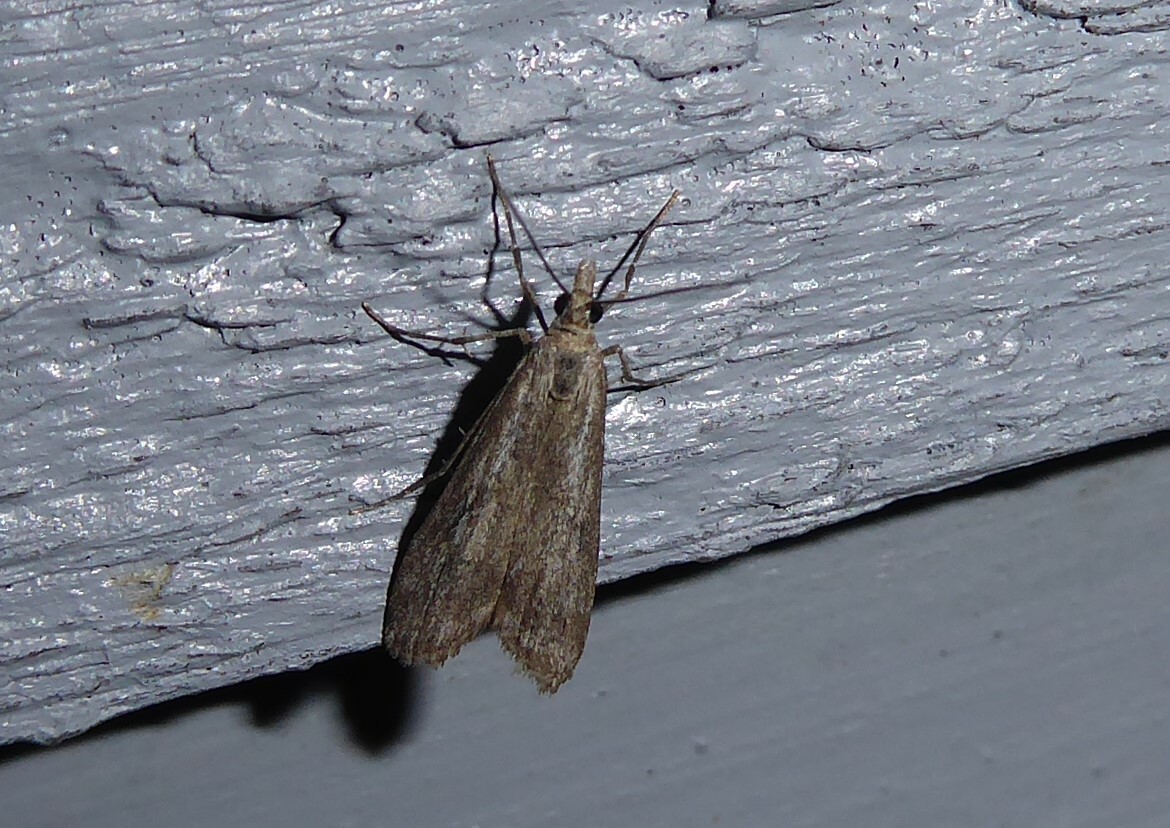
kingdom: Animalia
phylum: Arthropoda
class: Insecta
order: Lepidoptera
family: Crambidae
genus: Eudonia
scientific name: Eudonia leptalea
